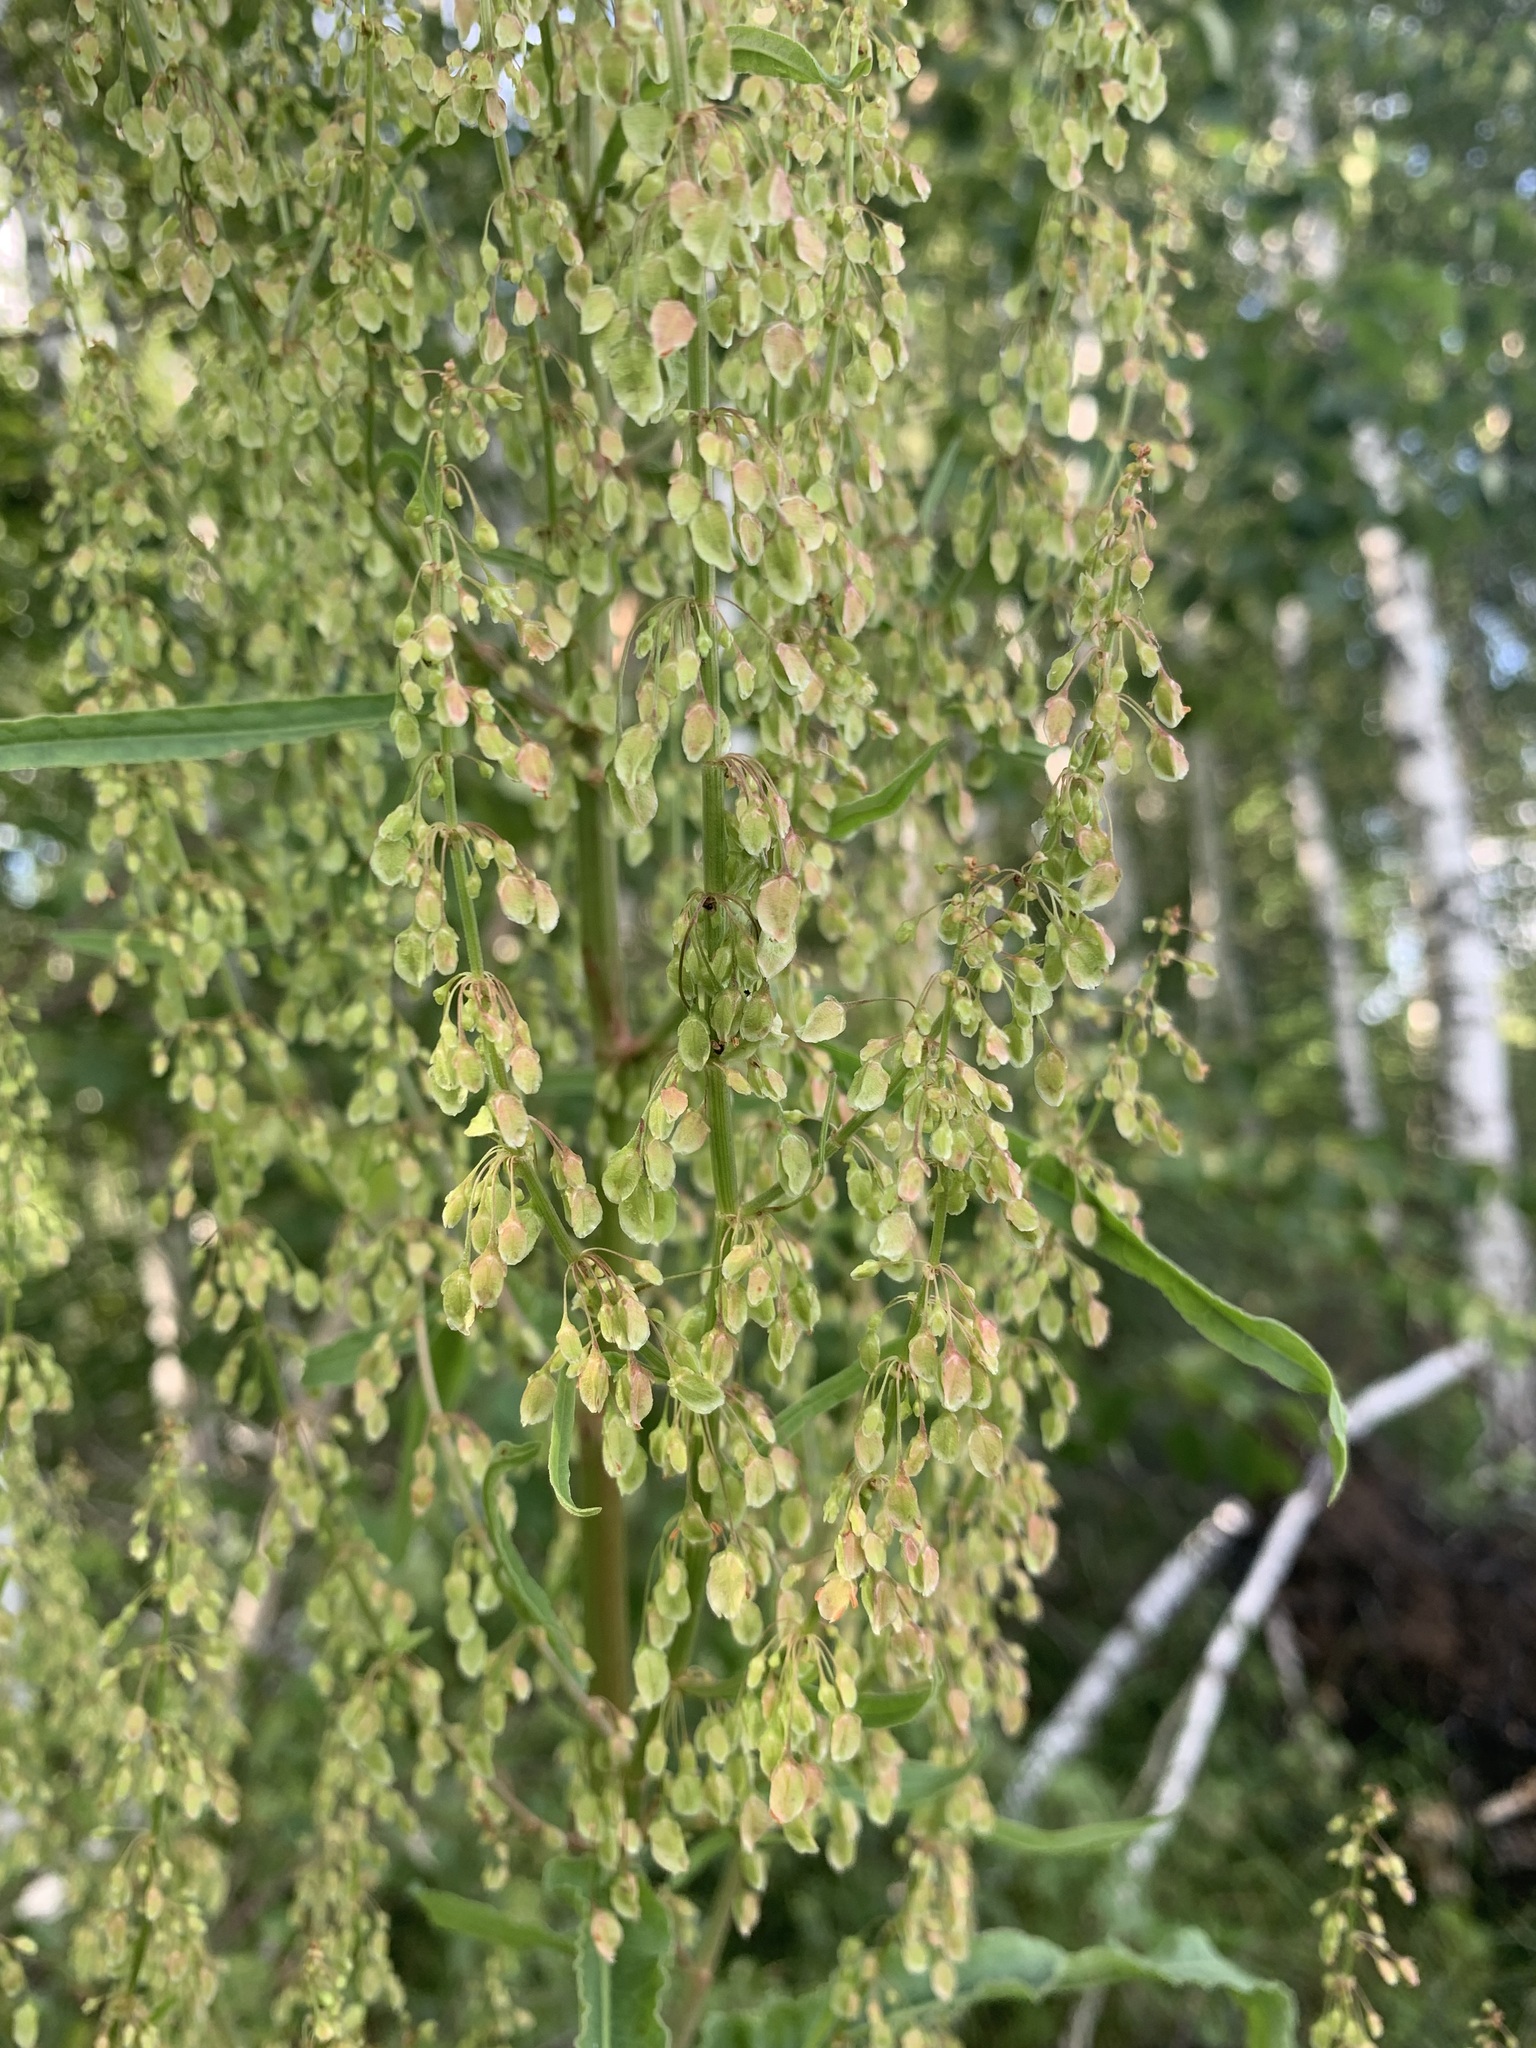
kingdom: Plantae
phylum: Tracheophyta
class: Magnoliopsida
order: Caryophyllales
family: Polygonaceae
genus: Rumex
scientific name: Rumex aquaticus
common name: Scottish dock
